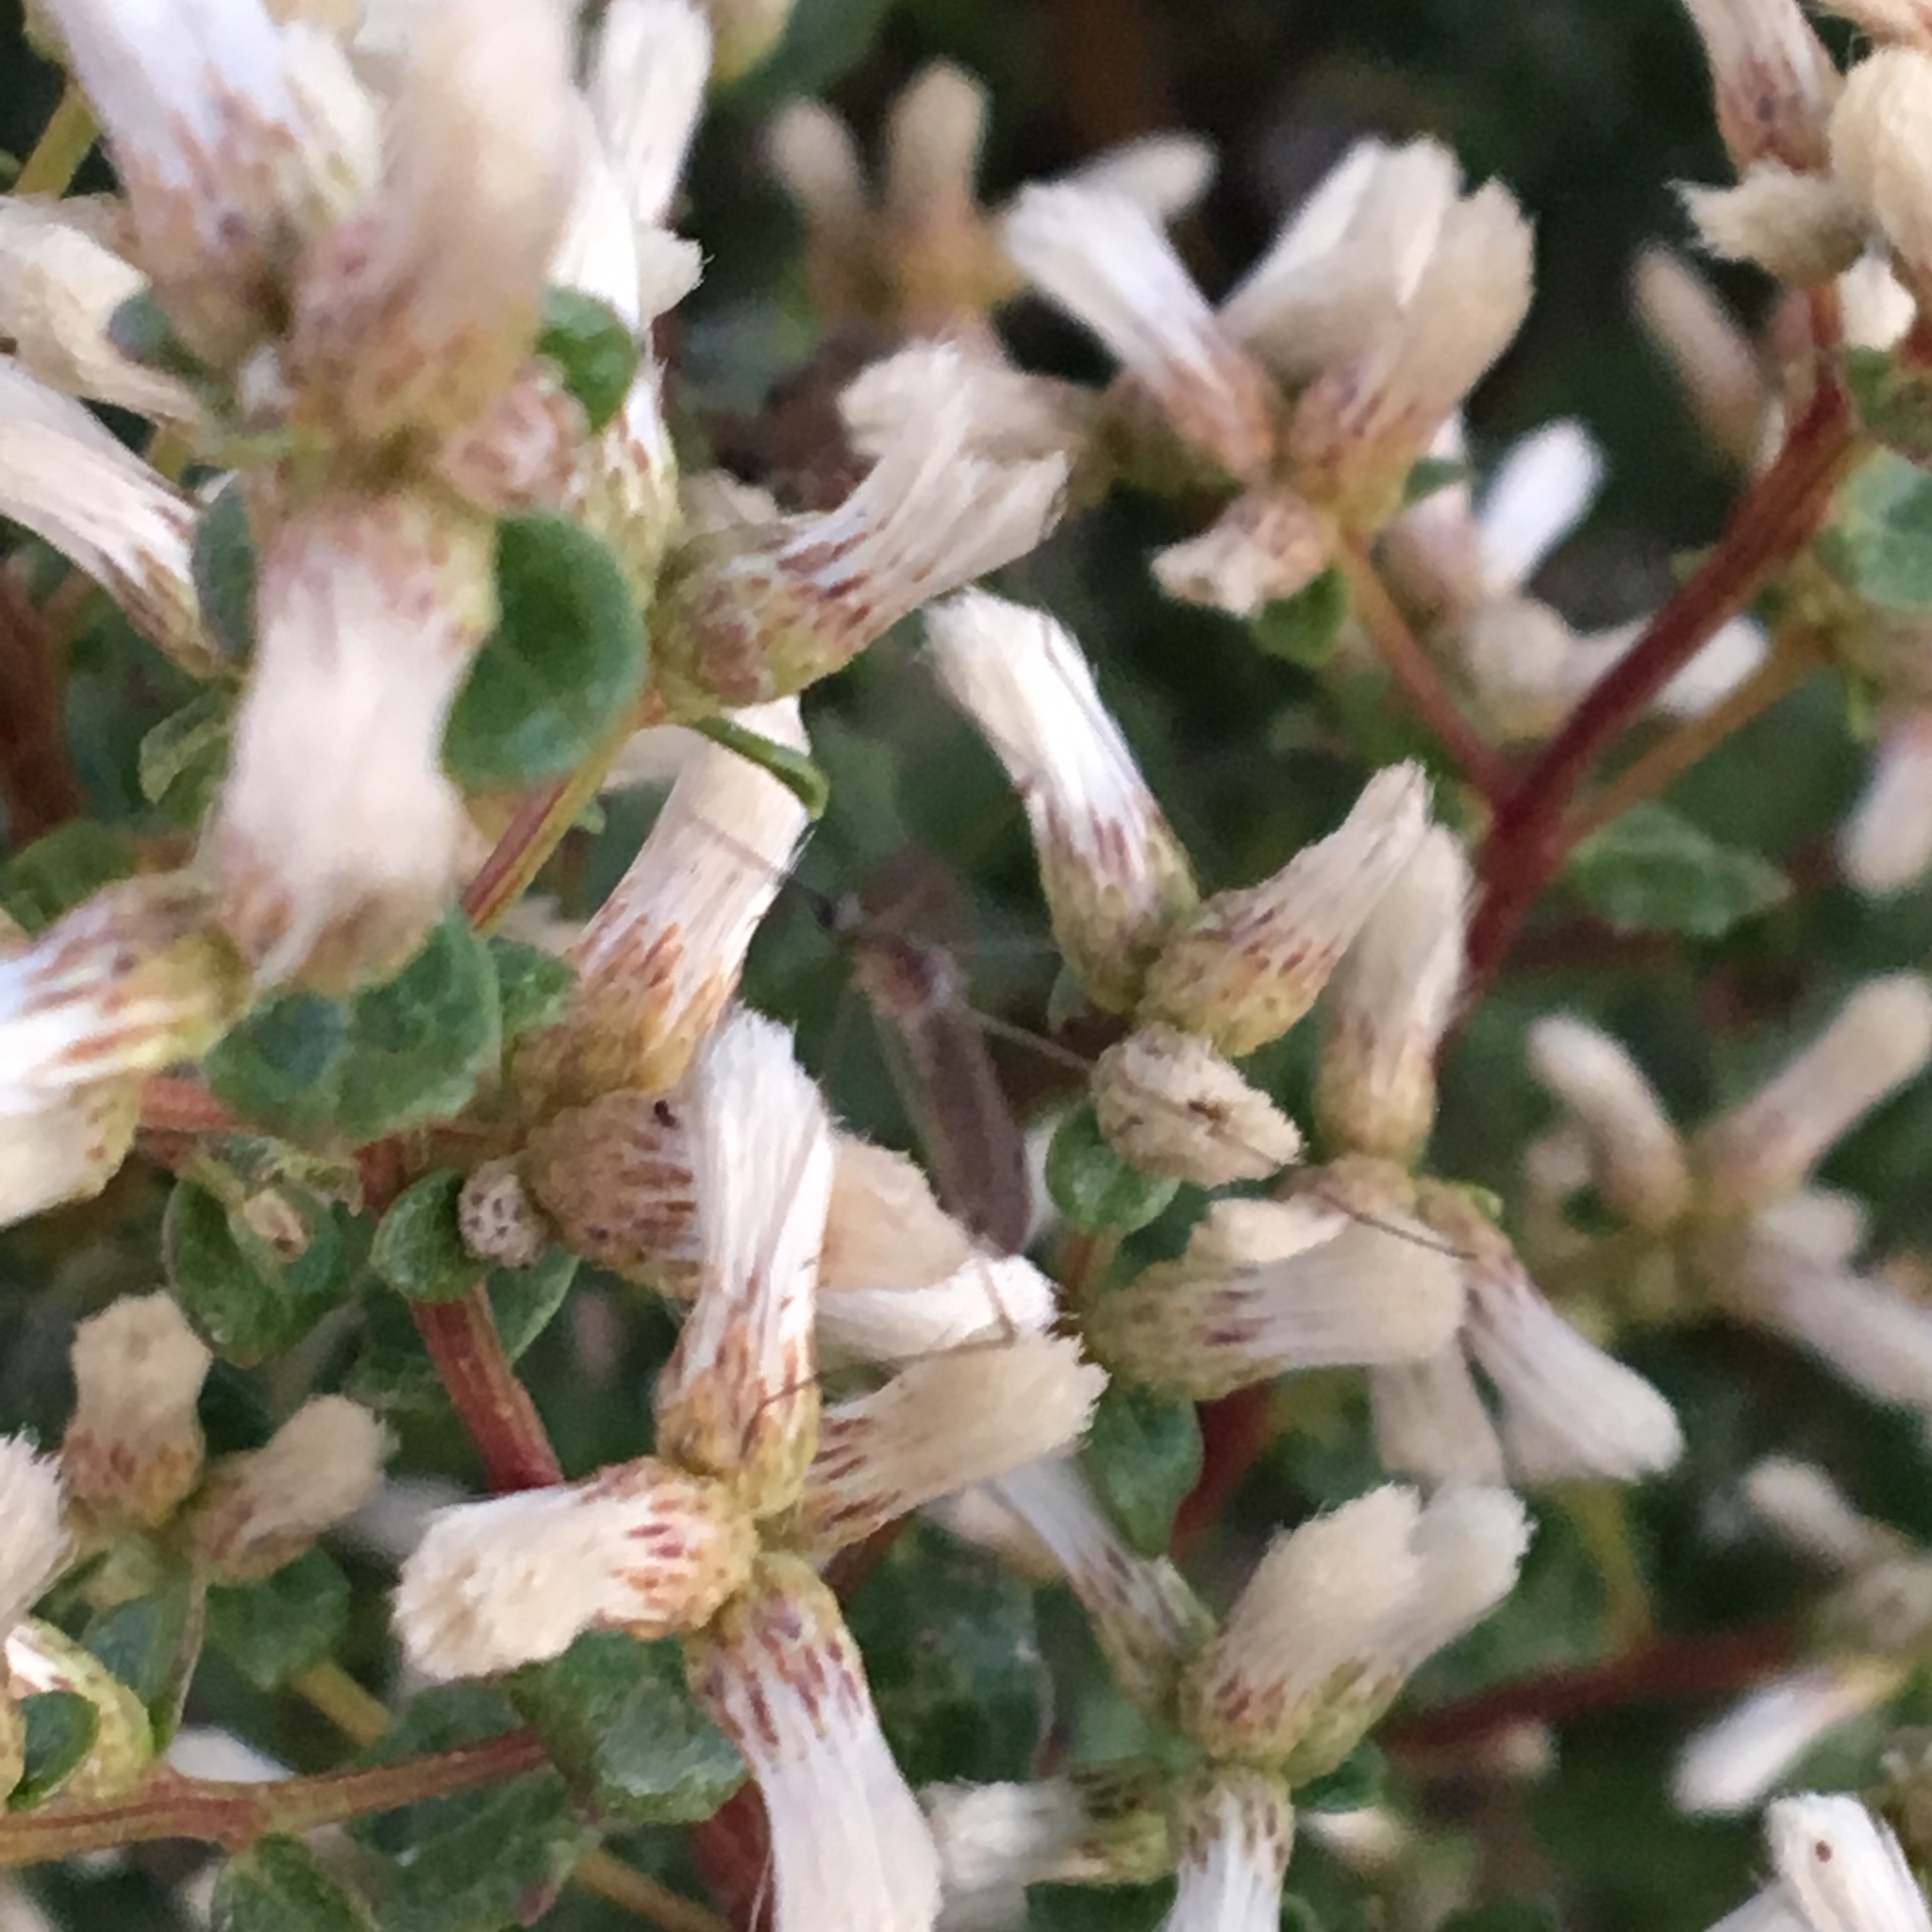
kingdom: Plantae
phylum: Tracheophyta
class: Magnoliopsida
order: Asterales
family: Asteraceae
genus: Baccharis
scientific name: Baccharis pilularis
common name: Coyotebrush
